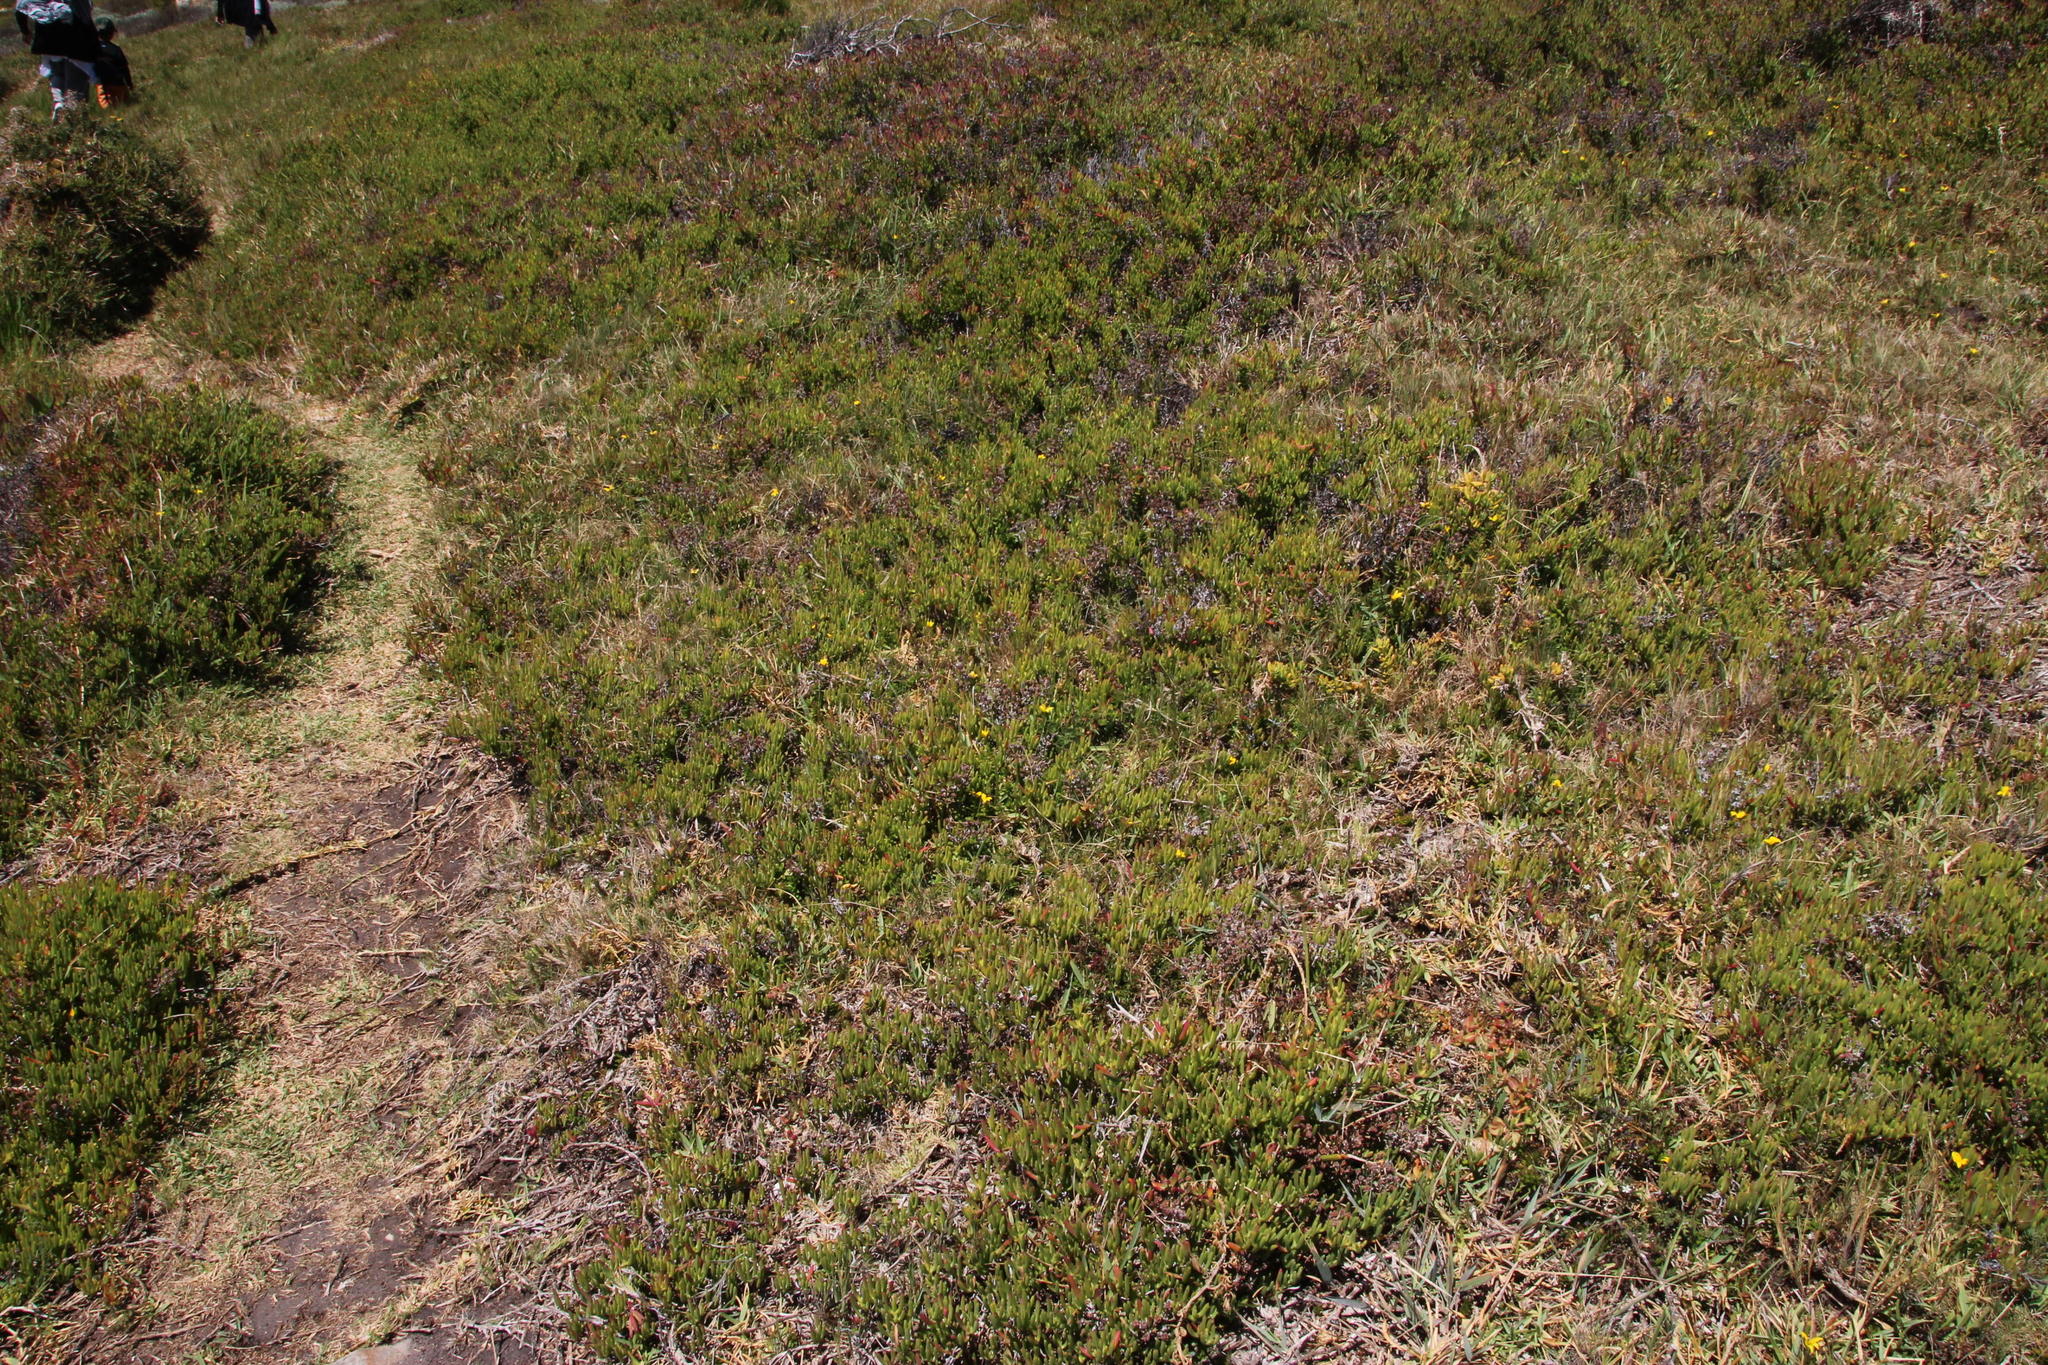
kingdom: Plantae
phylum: Tracheophyta
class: Magnoliopsida
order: Asterales
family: Campanulaceae
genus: Monopsis
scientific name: Monopsis lutea
